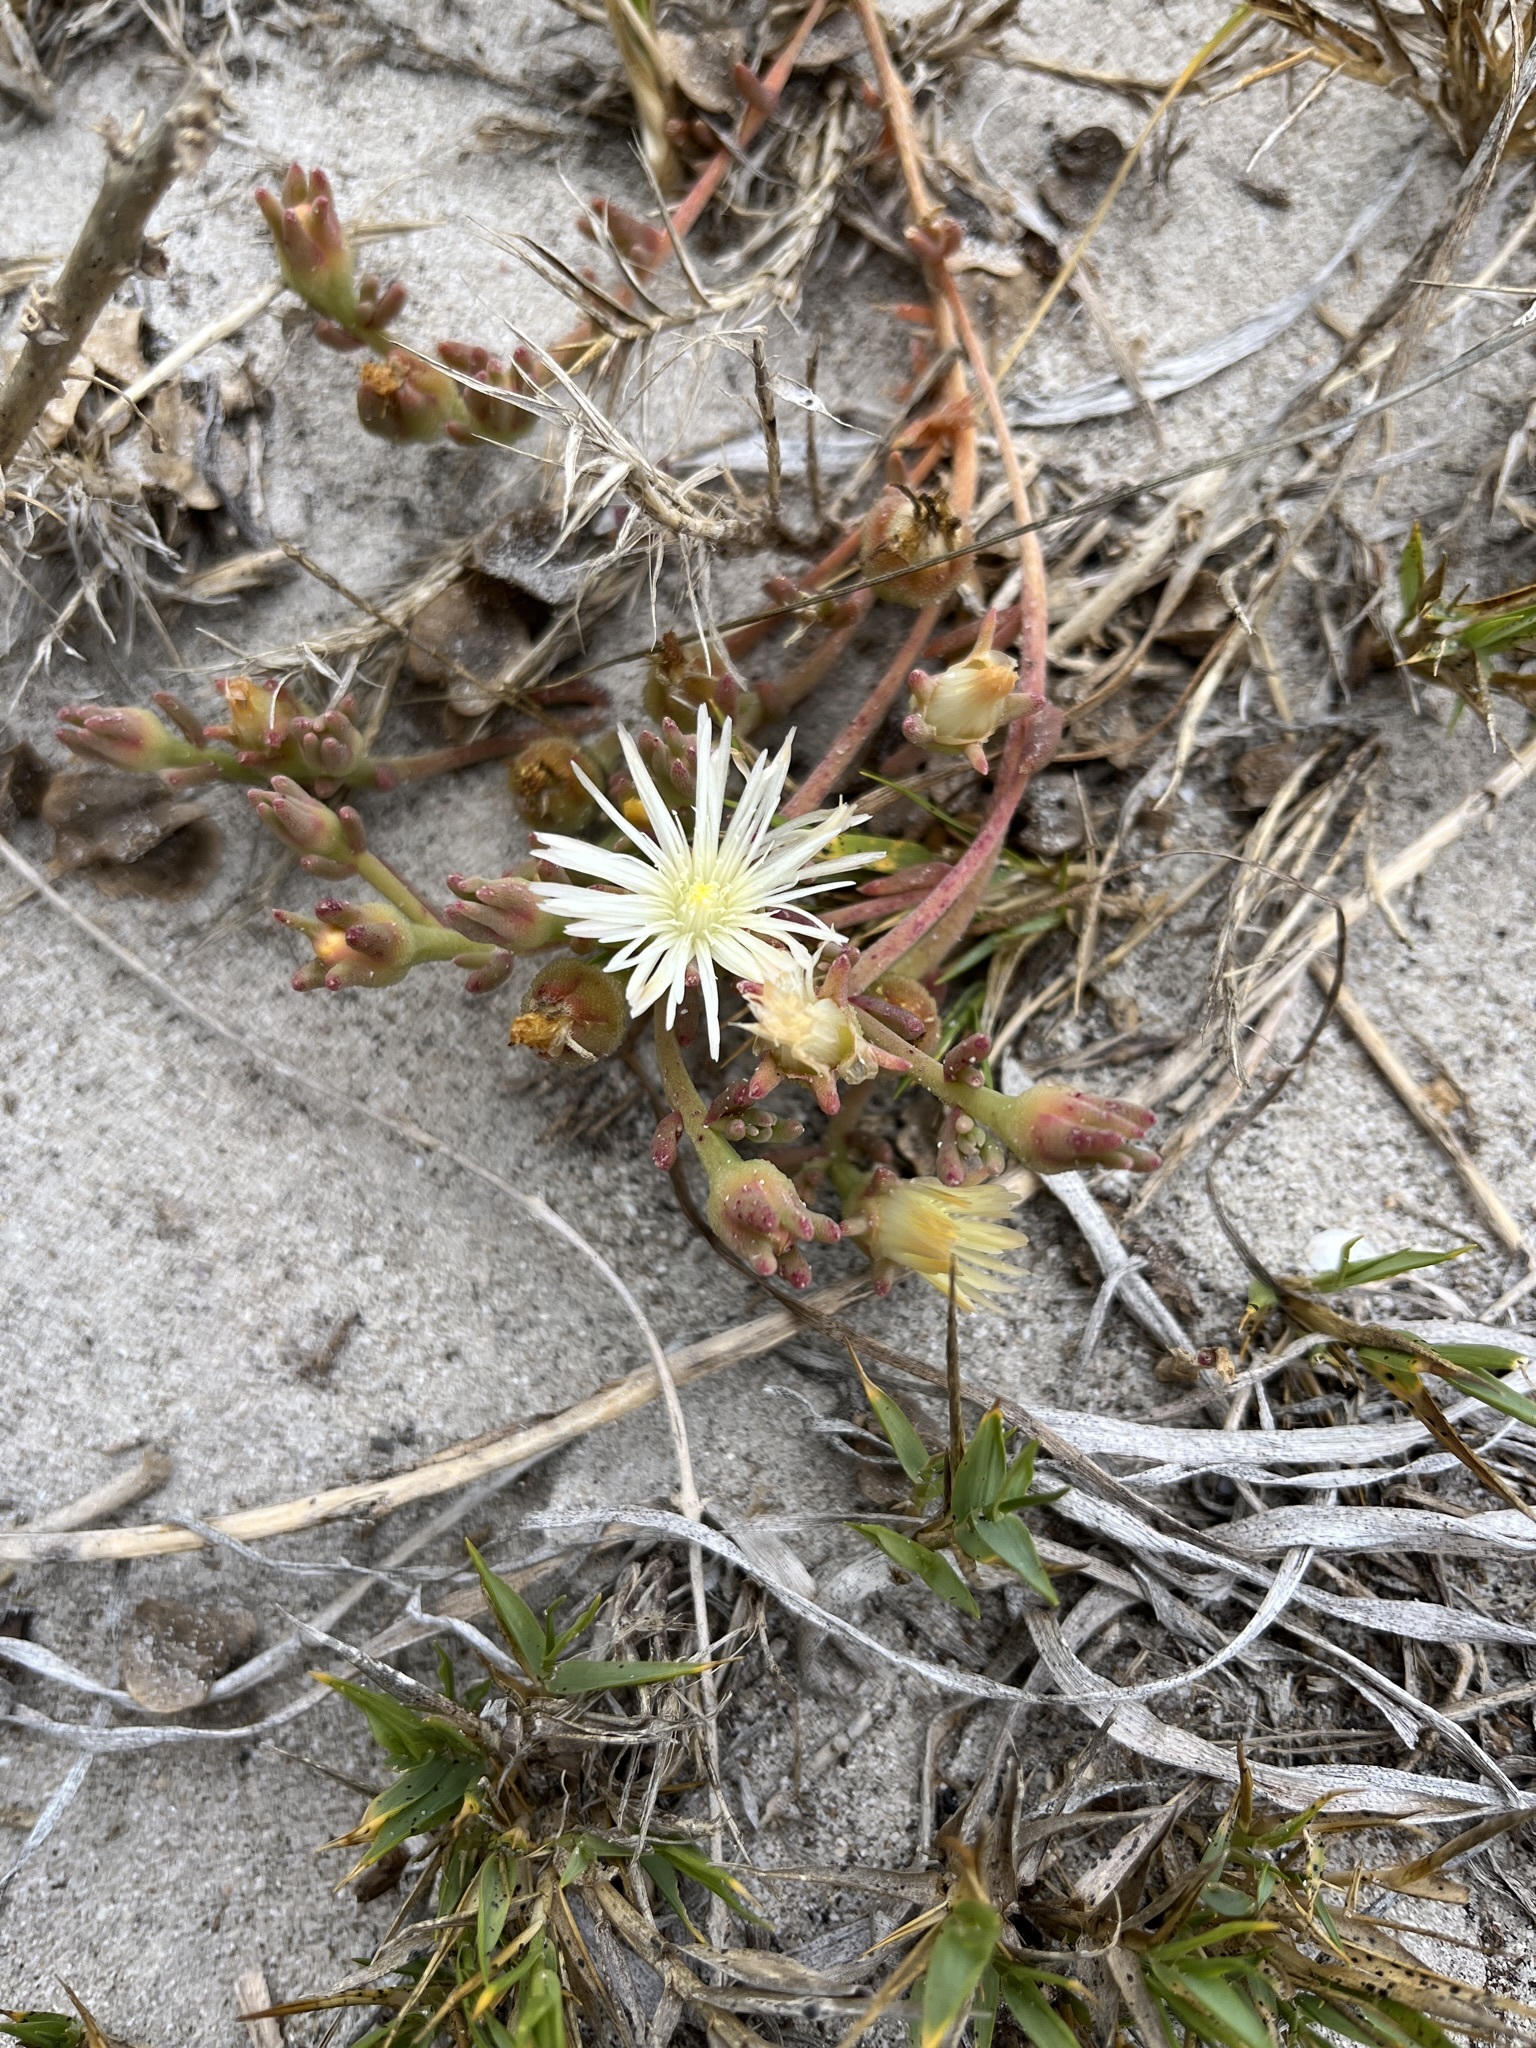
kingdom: Plantae
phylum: Tracheophyta
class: Magnoliopsida
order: Caryophyllales
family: Aizoaceae
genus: Mesembryanthemum
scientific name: Mesembryanthemum canaliculatum
